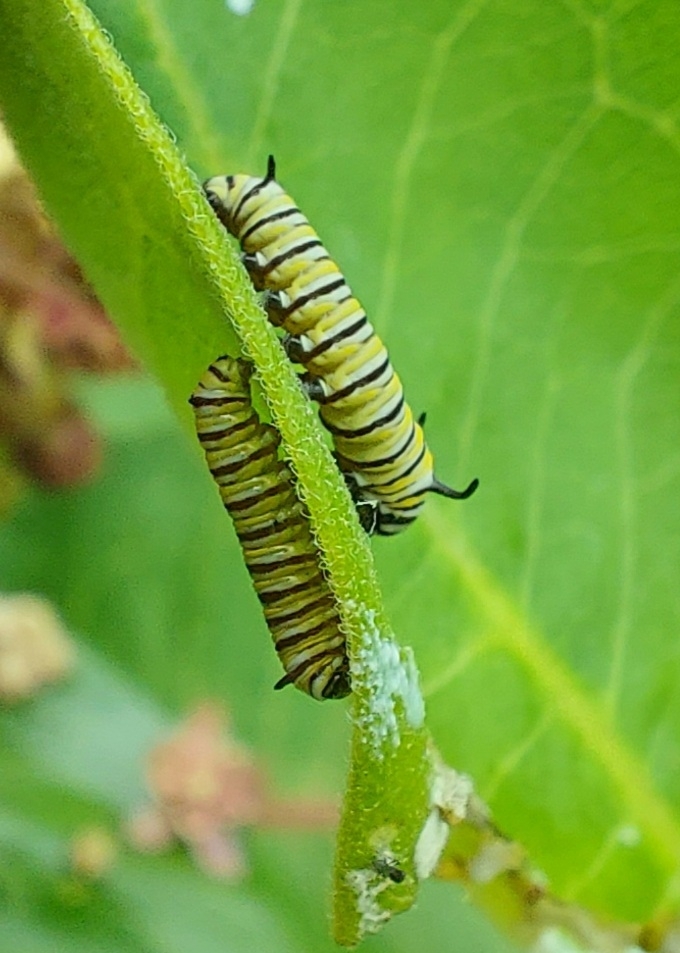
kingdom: Animalia
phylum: Arthropoda
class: Insecta
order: Lepidoptera
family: Nymphalidae
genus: Danaus
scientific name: Danaus plexippus
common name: Monarch
